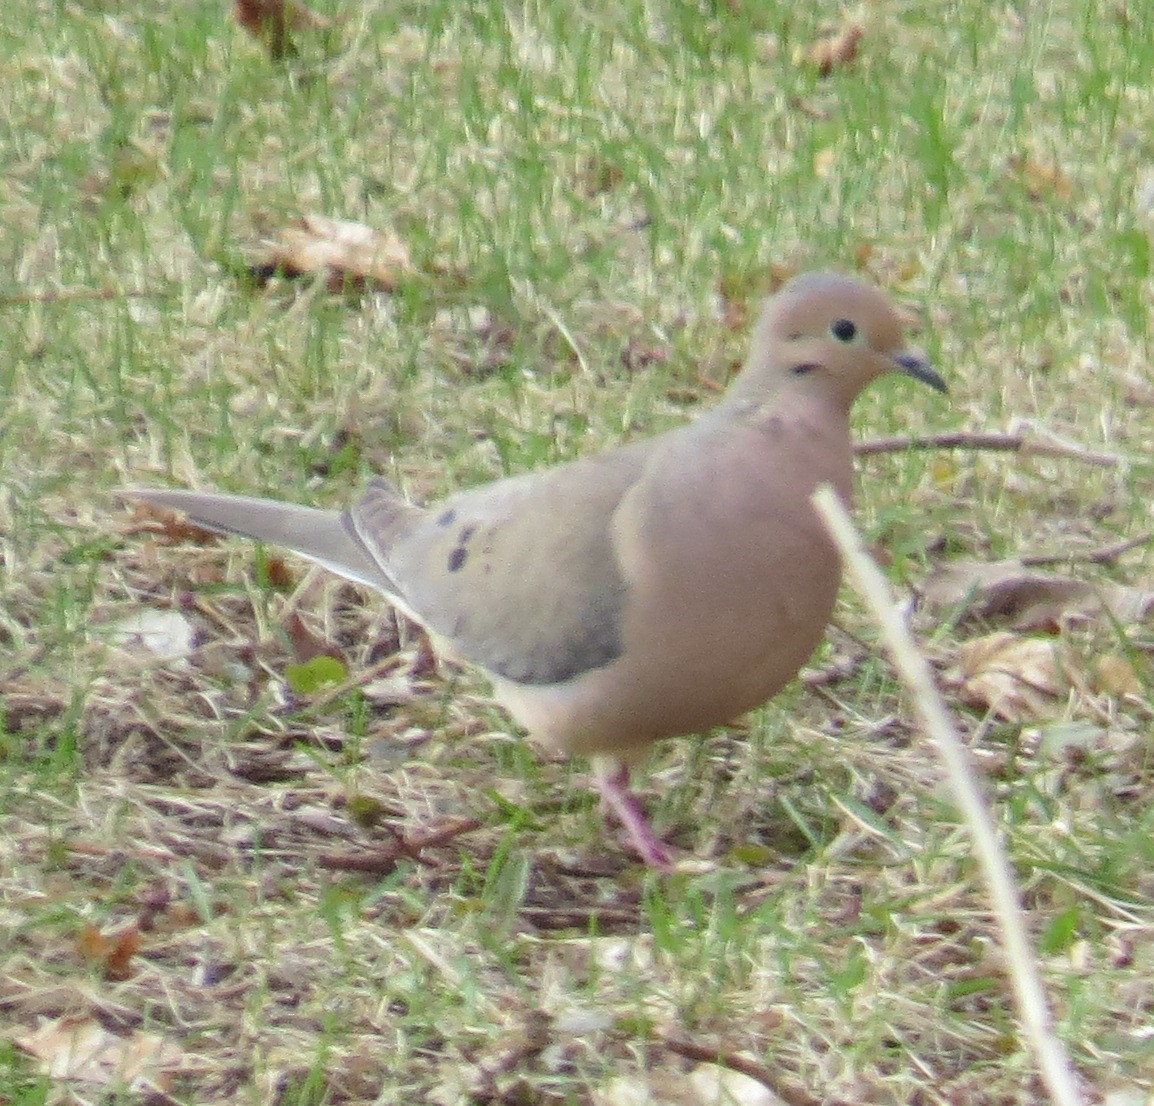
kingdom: Animalia
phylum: Chordata
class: Aves
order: Columbiformes
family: Columbidae
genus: Zenaida
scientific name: Zenaida macroura
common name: Mourning dove
